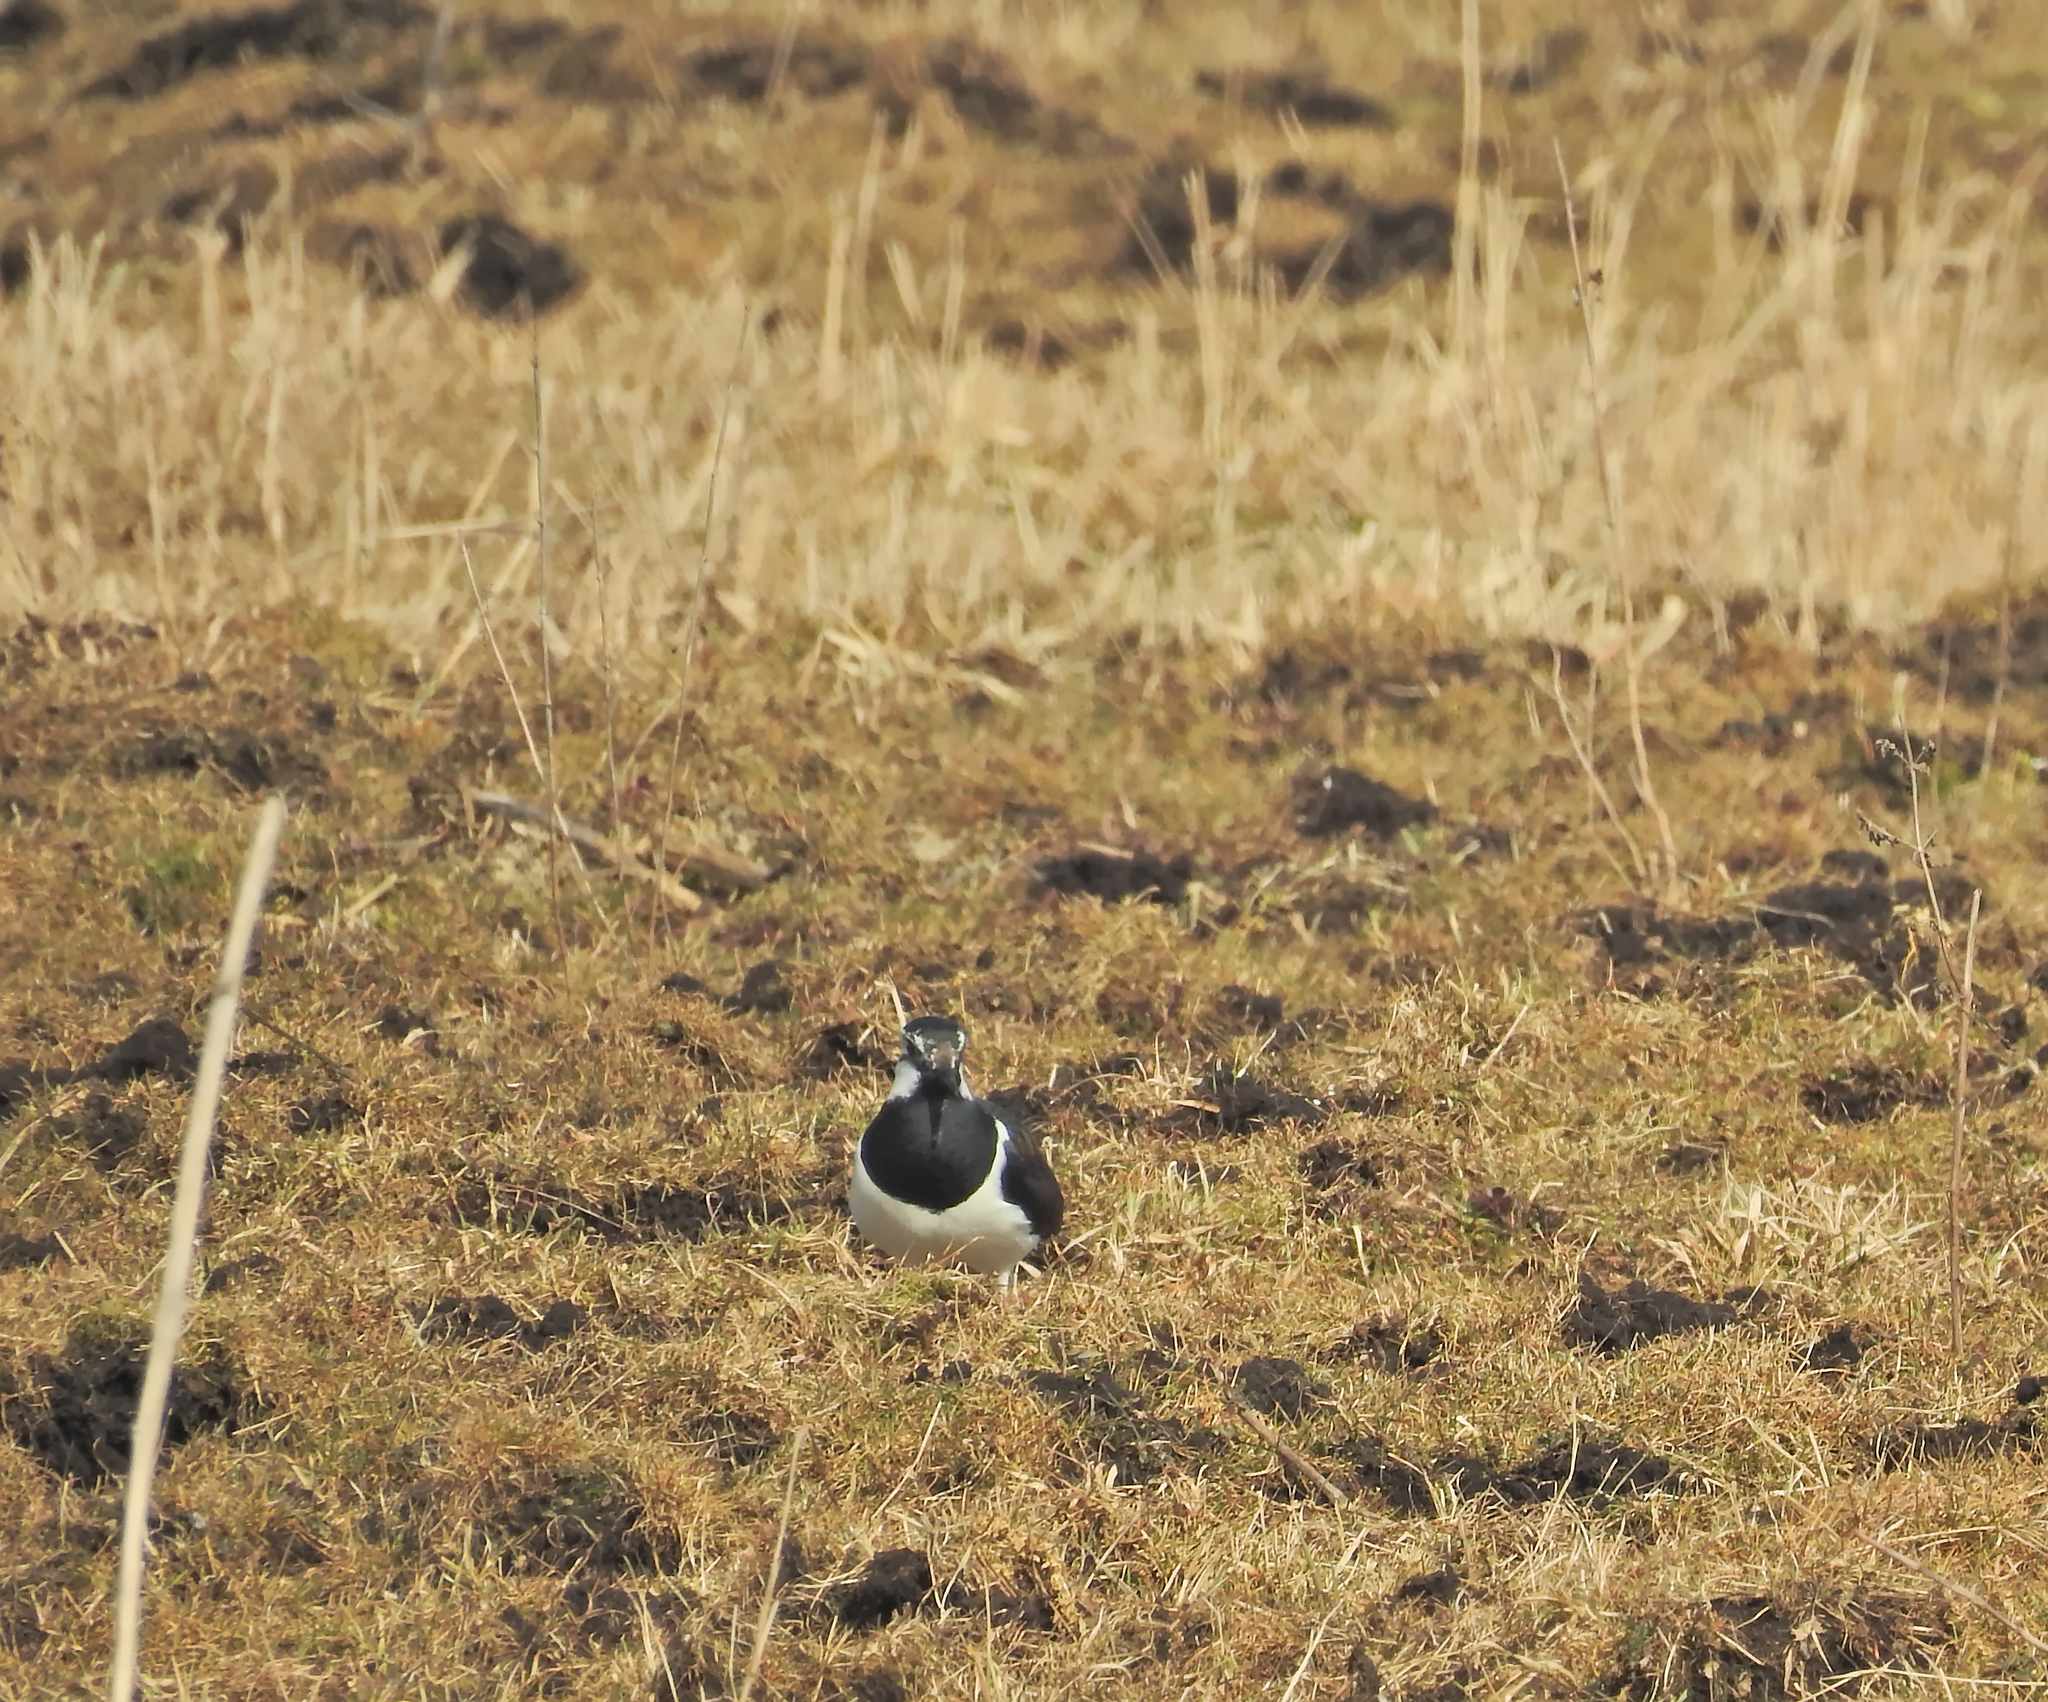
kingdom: Animalia
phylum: Chordata
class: Aves
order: Charadriiformes
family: Charadriidae
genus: Vanellus
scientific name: Vanellus vanellus
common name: Northern lapwing
